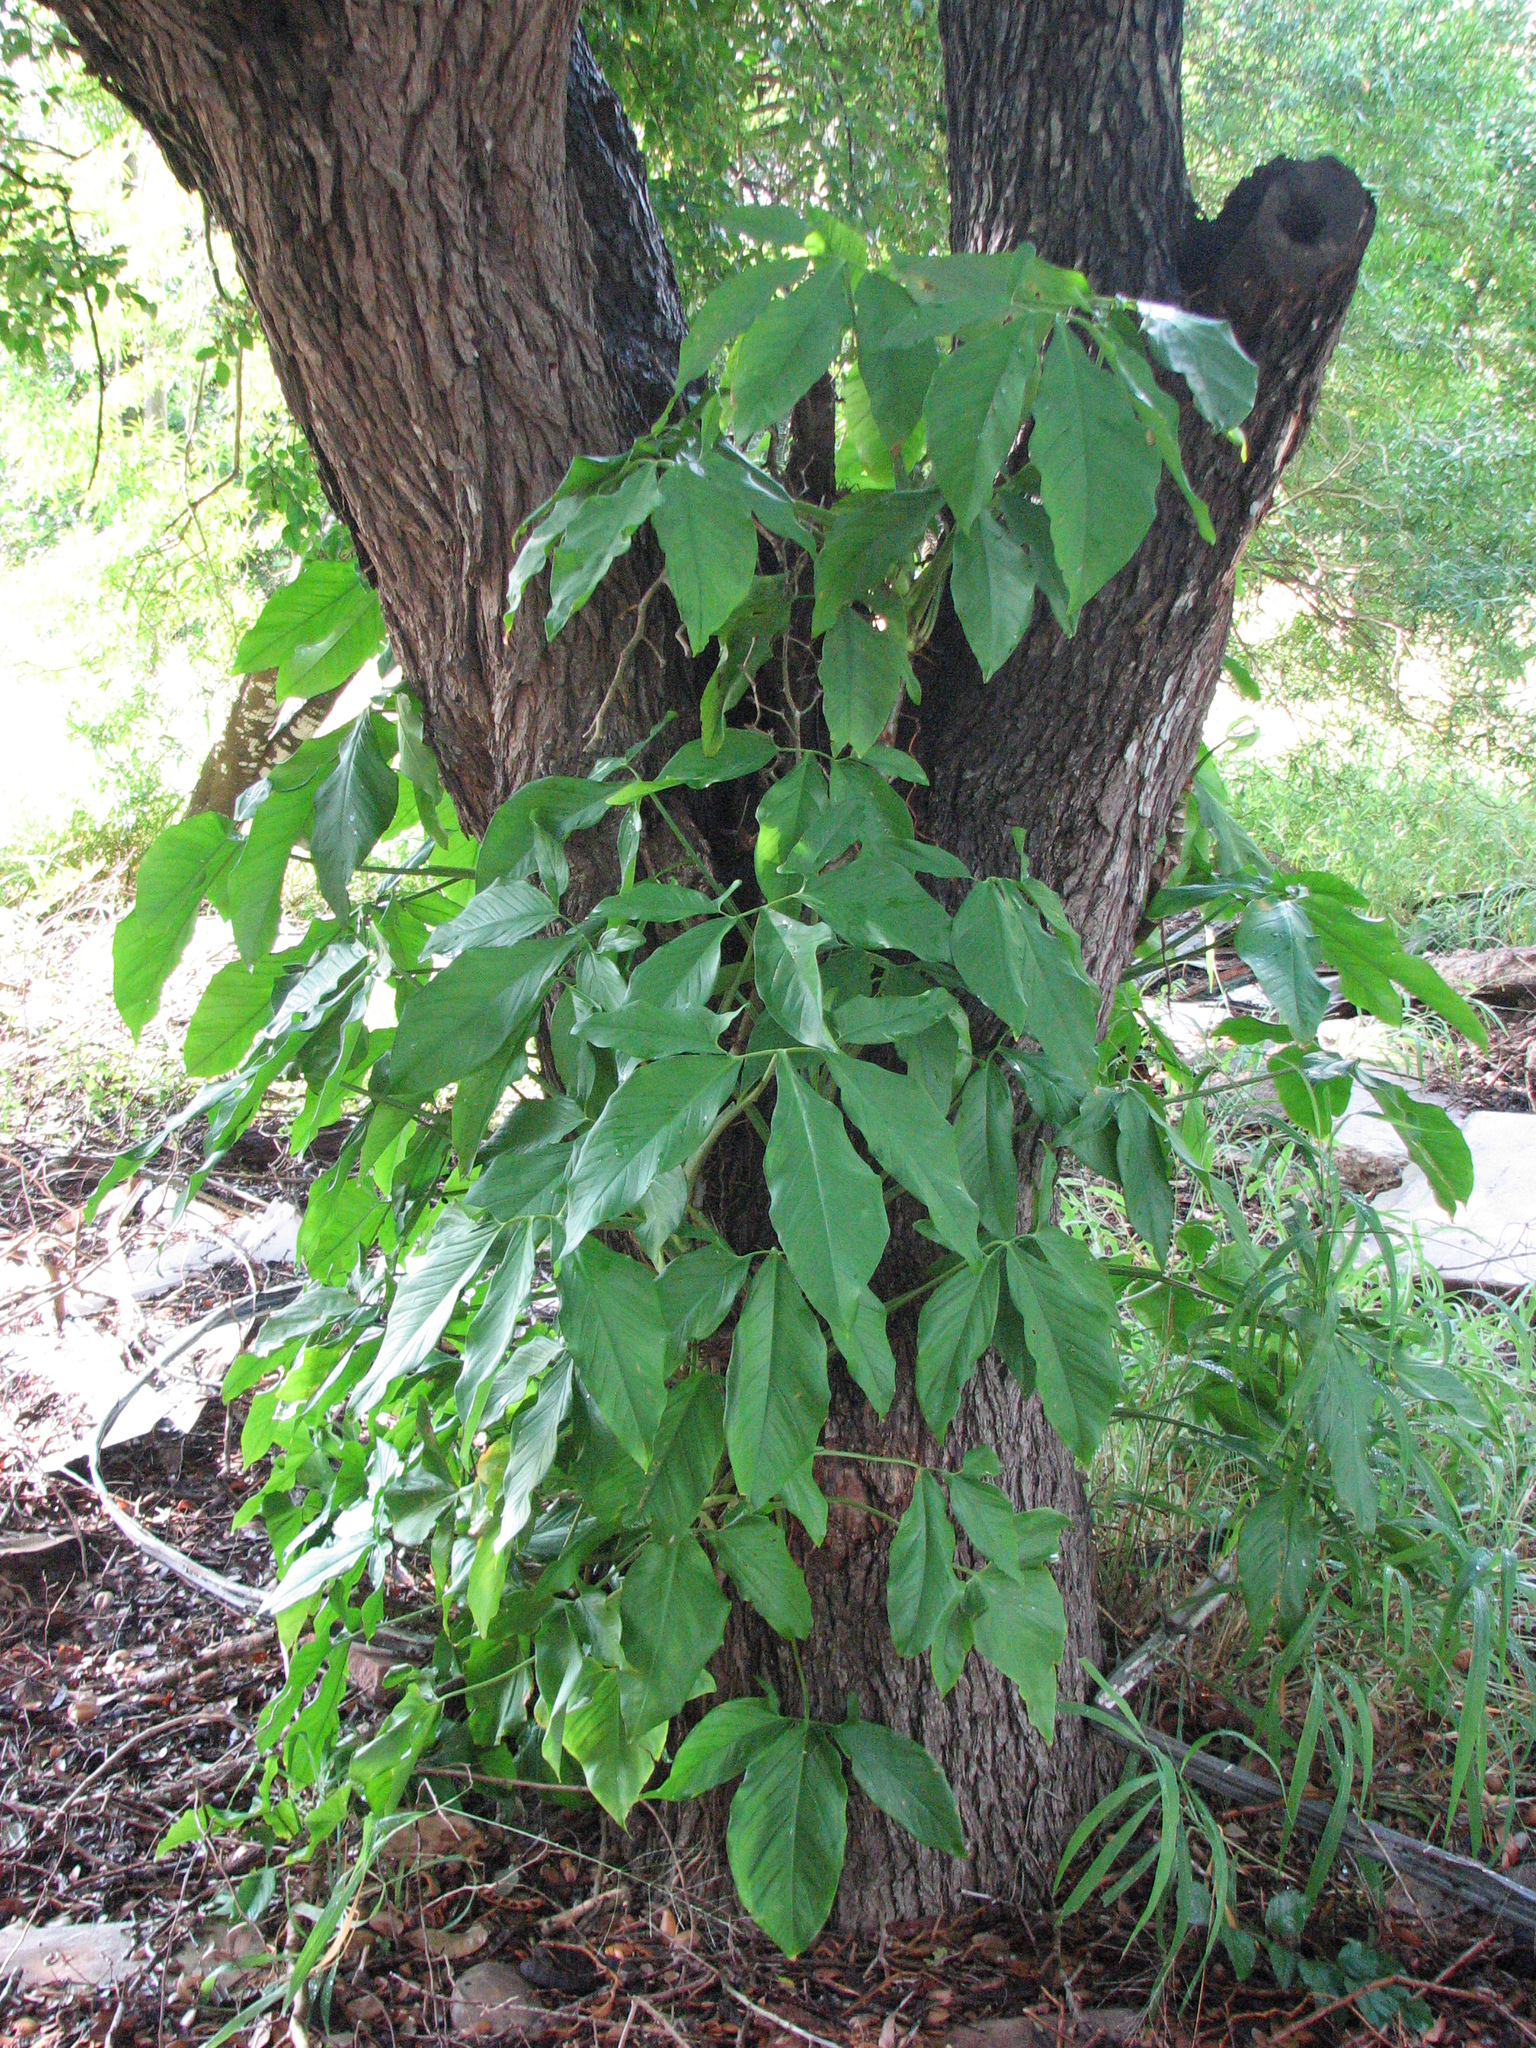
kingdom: Plantae
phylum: Tracheophyta
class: Liliopsida
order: Alismatales
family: Araceae
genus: Syngonium
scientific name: Syngonium podophyllum
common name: American evergreen
